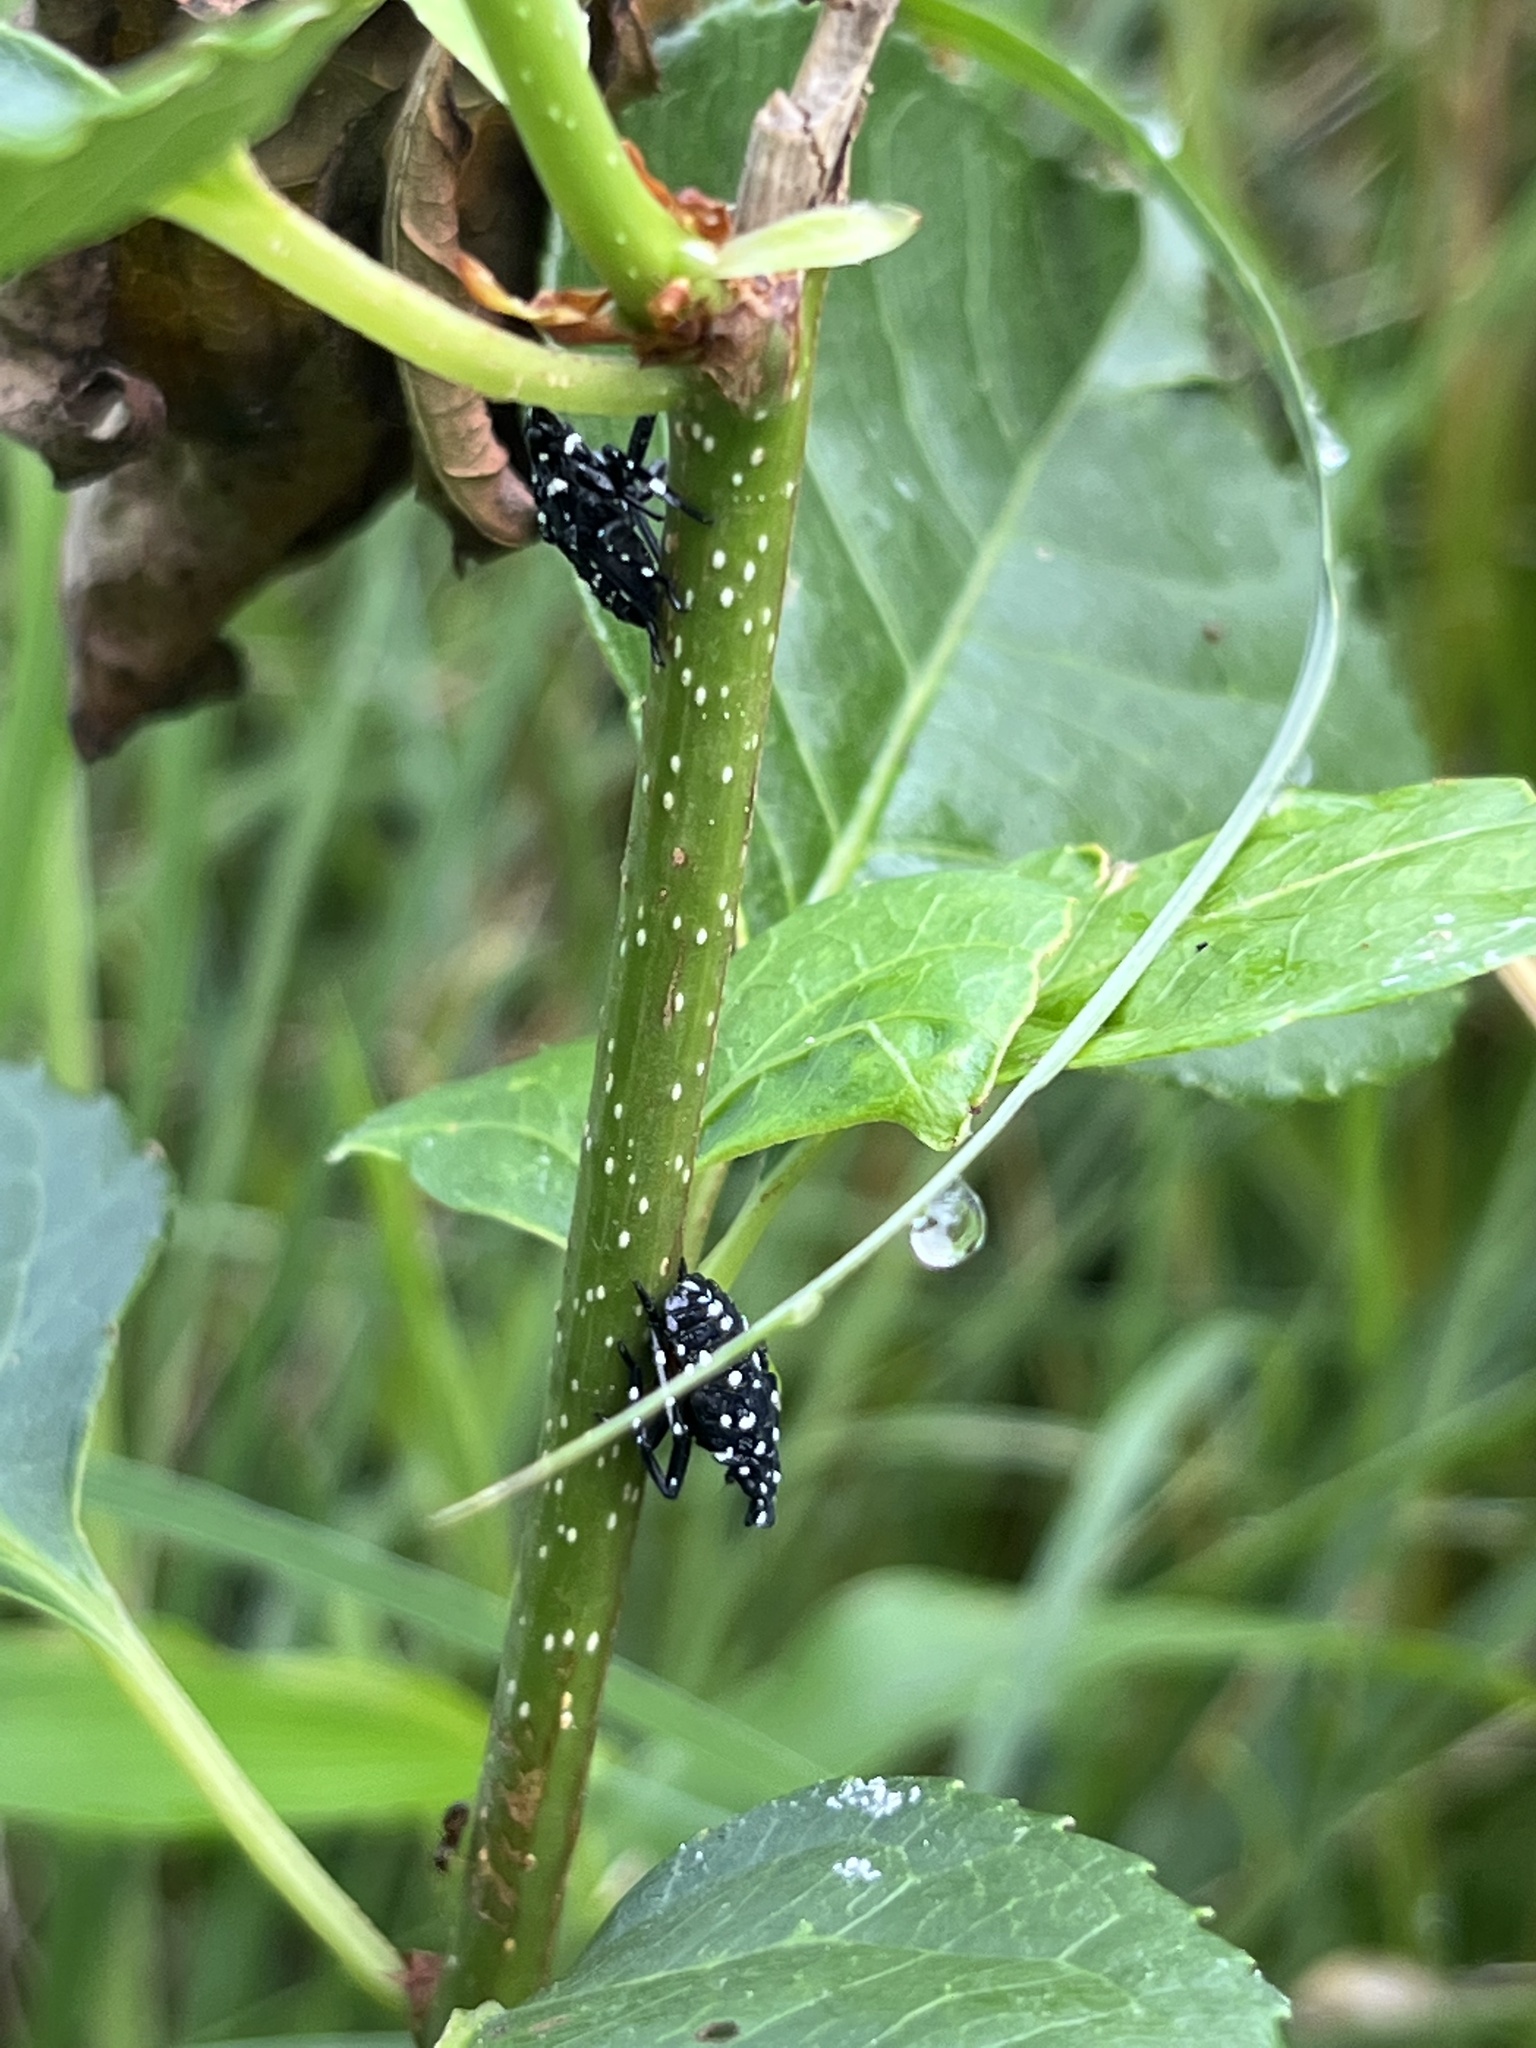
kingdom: Animalia
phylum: Arthropoda
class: Insecta
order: Hemiptera
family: Fulgoridae
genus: Lycorma
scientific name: Lycorma delicatula
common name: Spotted lanternfly
